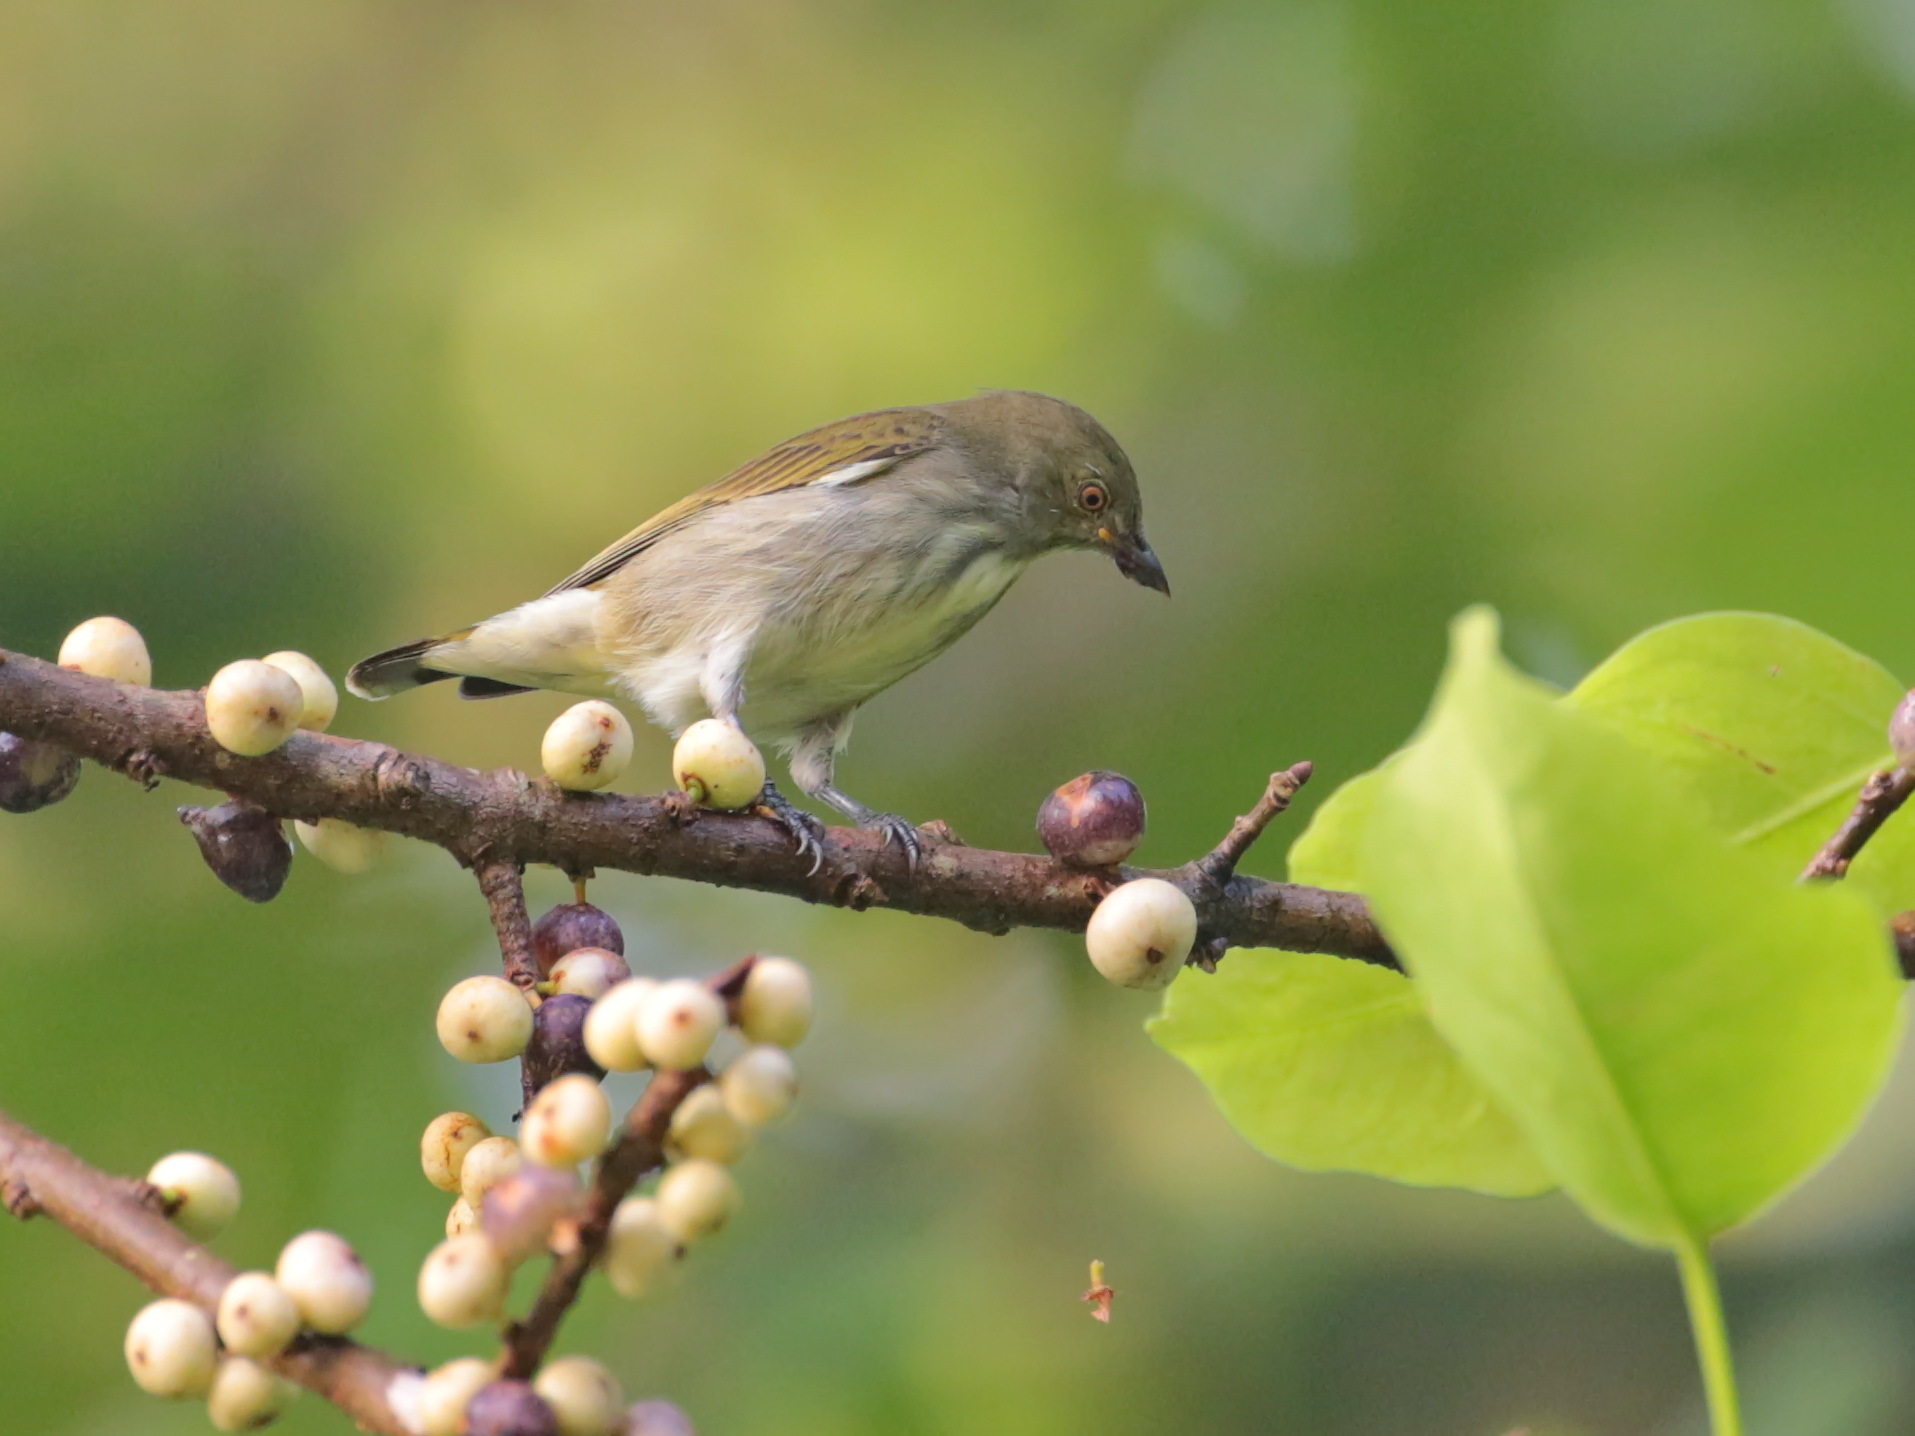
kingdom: Animalia
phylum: Chordata
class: Aves
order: Passeriformes
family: Dicaeidae
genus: Dicaeum
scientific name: Dicaeum agile
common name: Thick-billed flowerpecker
